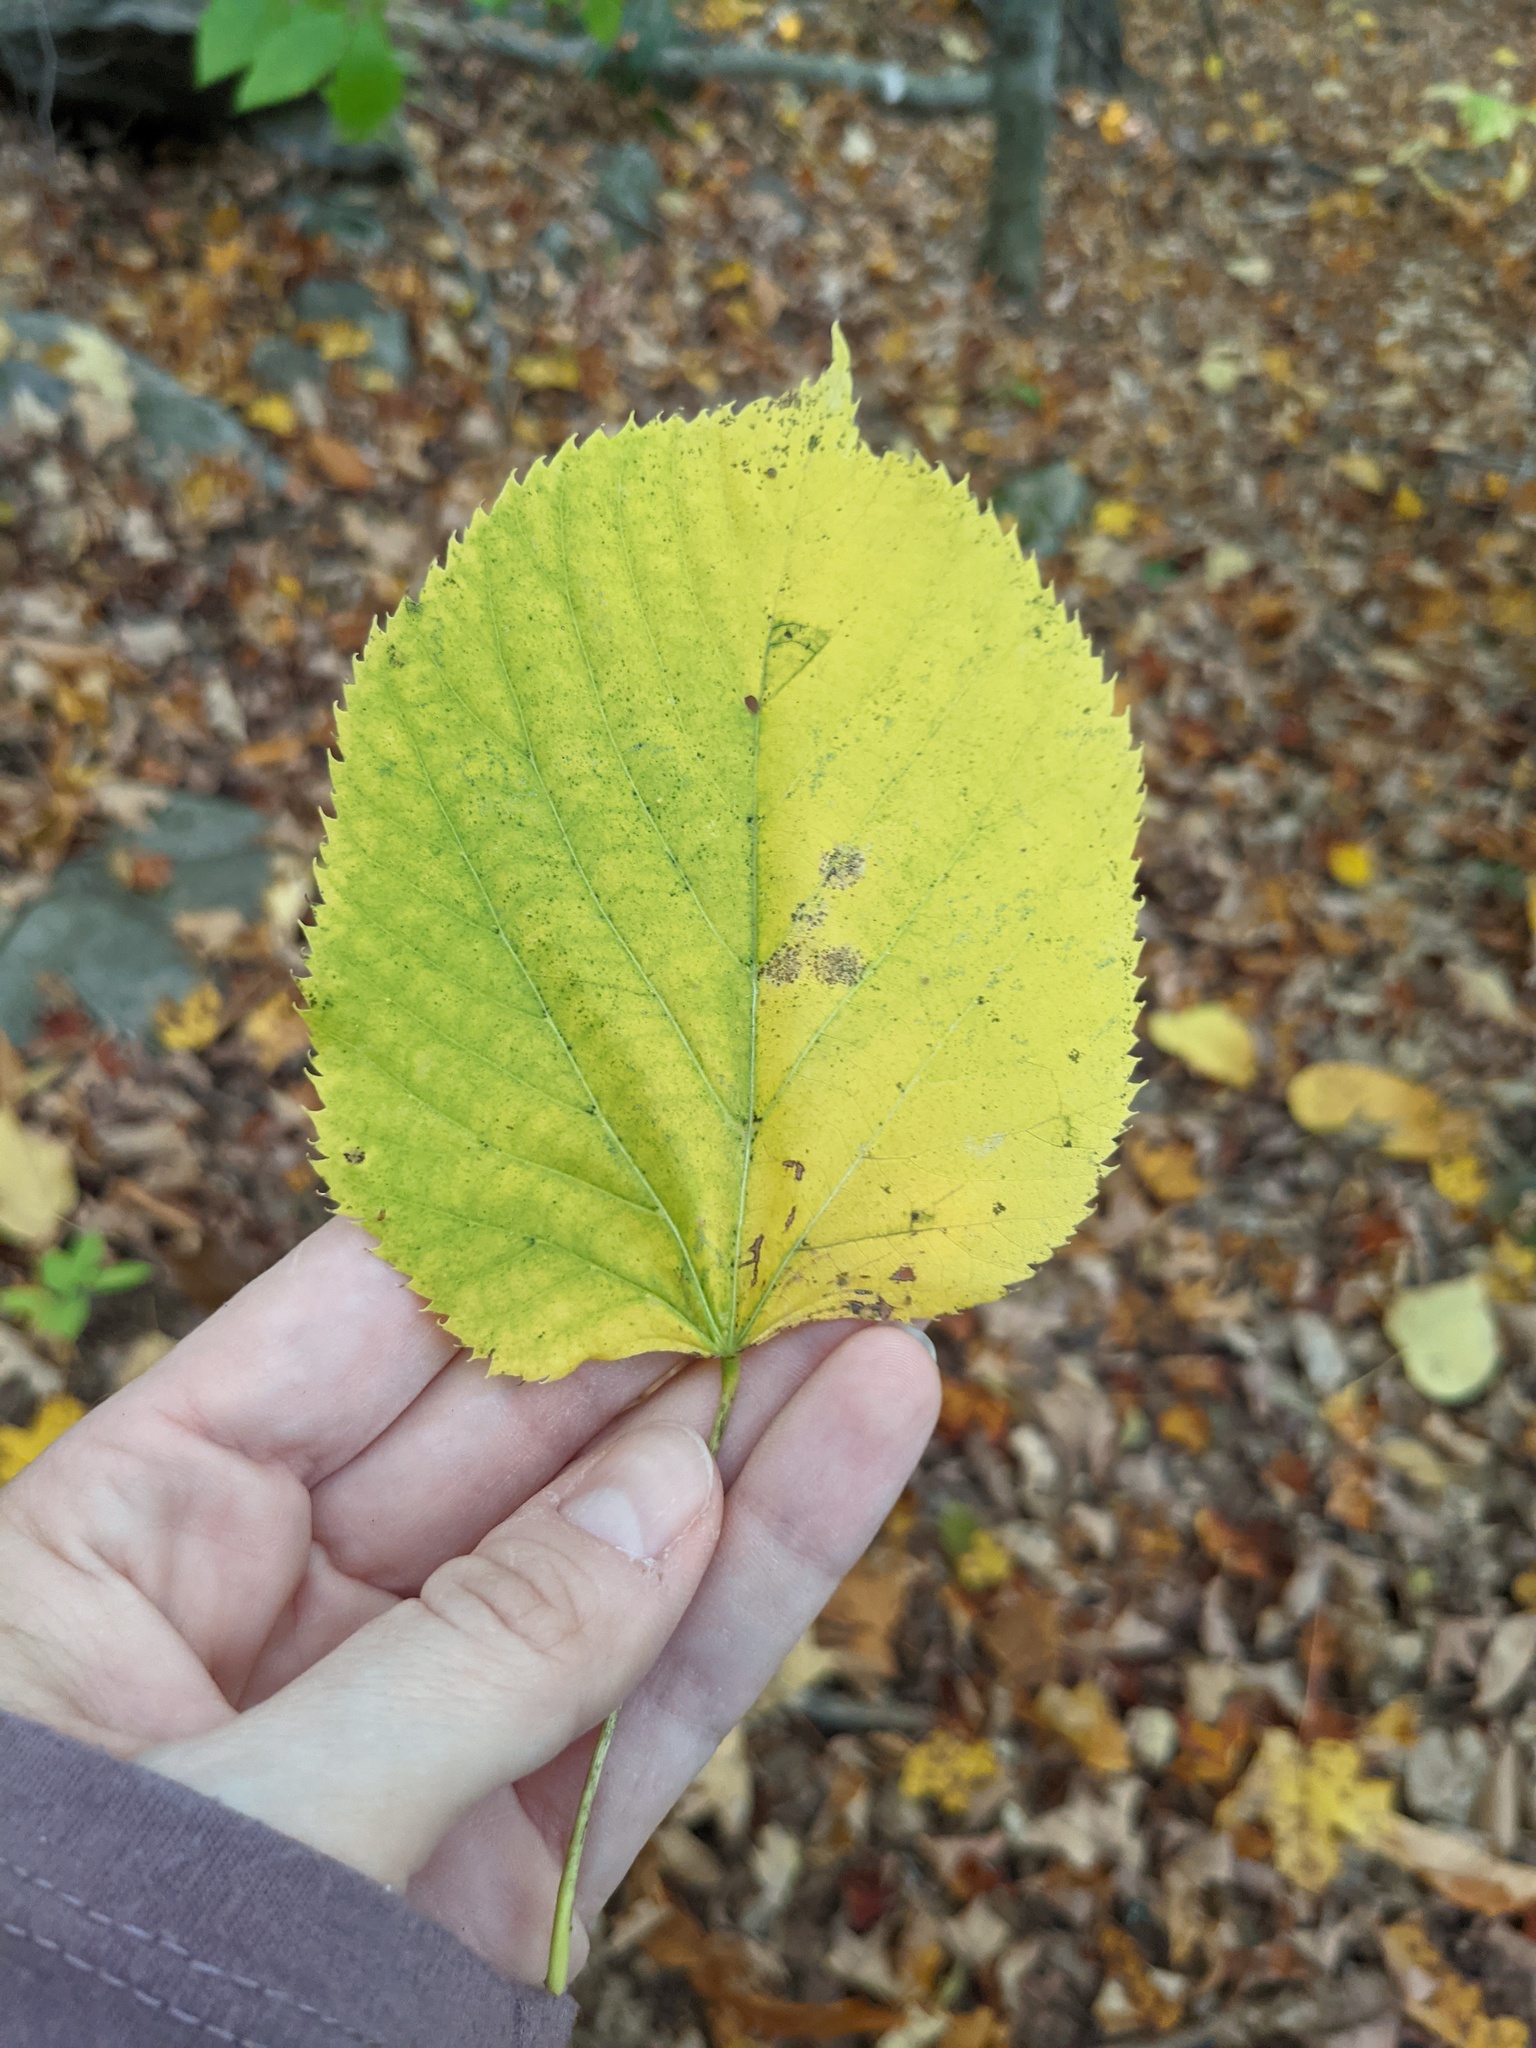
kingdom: Plantae
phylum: Tracheophyta
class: Magnoliopsida
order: Malvales
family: Malvaceae
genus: Tilia
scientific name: Tilia americana
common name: Basswood
